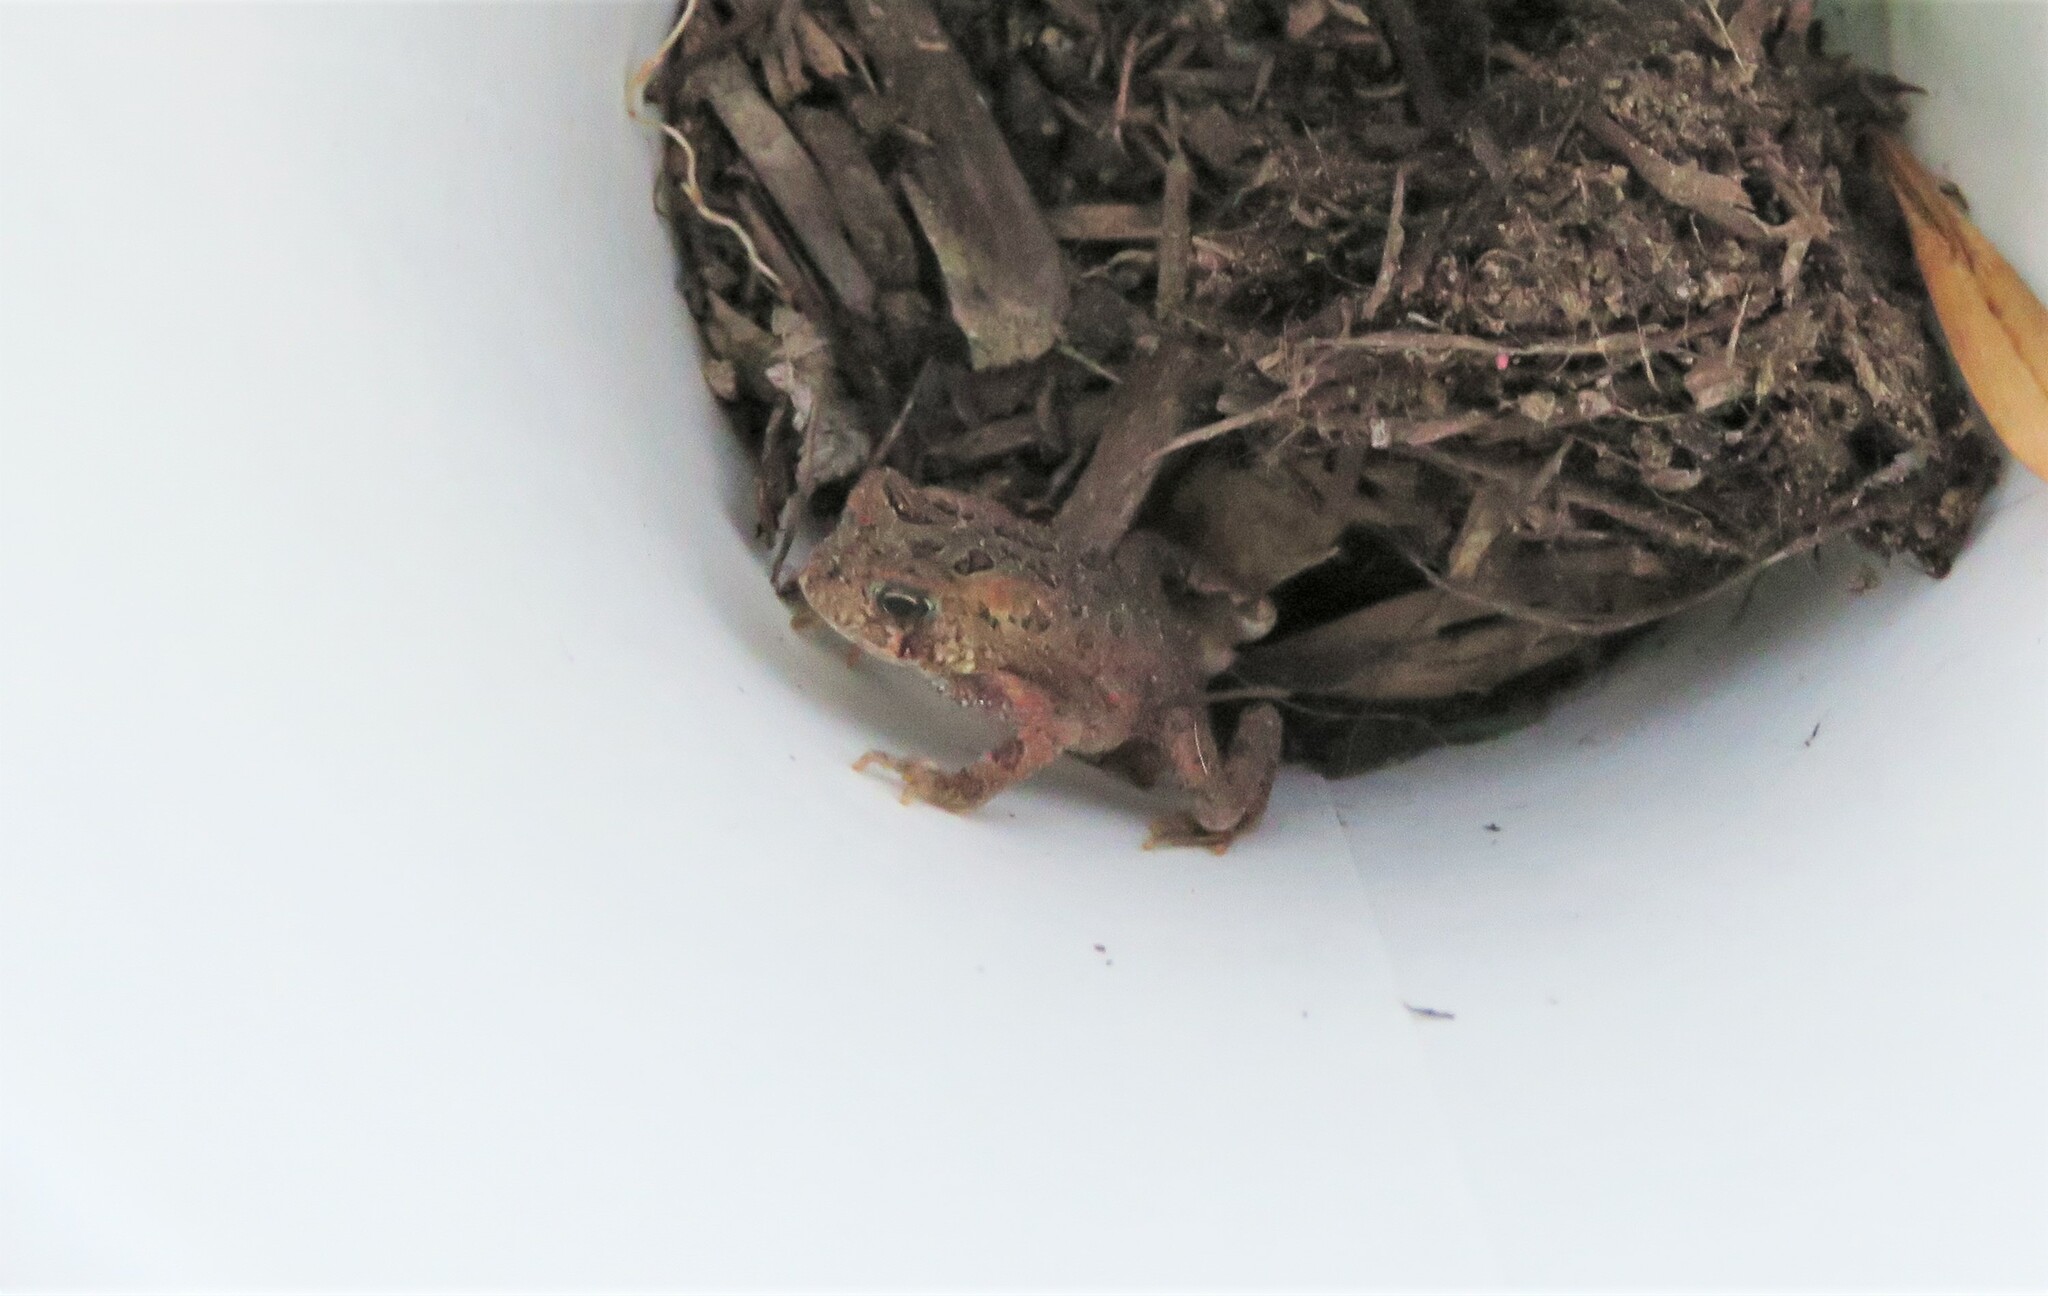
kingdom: Animalia
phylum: Chordata
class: Amphibia
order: Anura
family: Bufonidae
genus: Anaxyrus
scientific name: Anaxyrus americanus
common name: American toad
